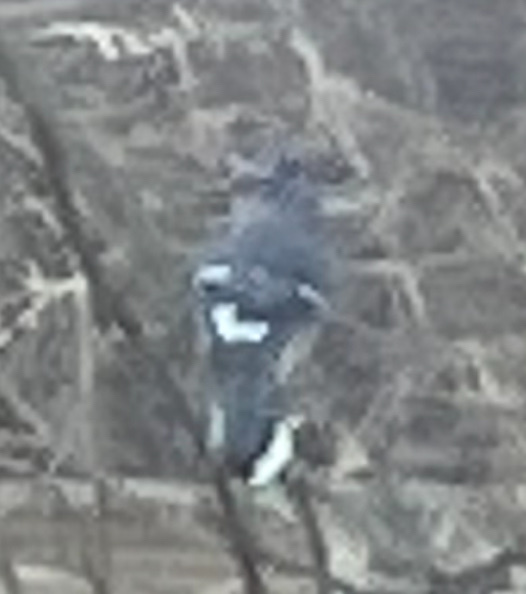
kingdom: Animalia
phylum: Chordata
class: Aves
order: Passeriformes
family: Corvidae
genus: Cyanocitta
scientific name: Cyanocitta cristata
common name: Blue jay
